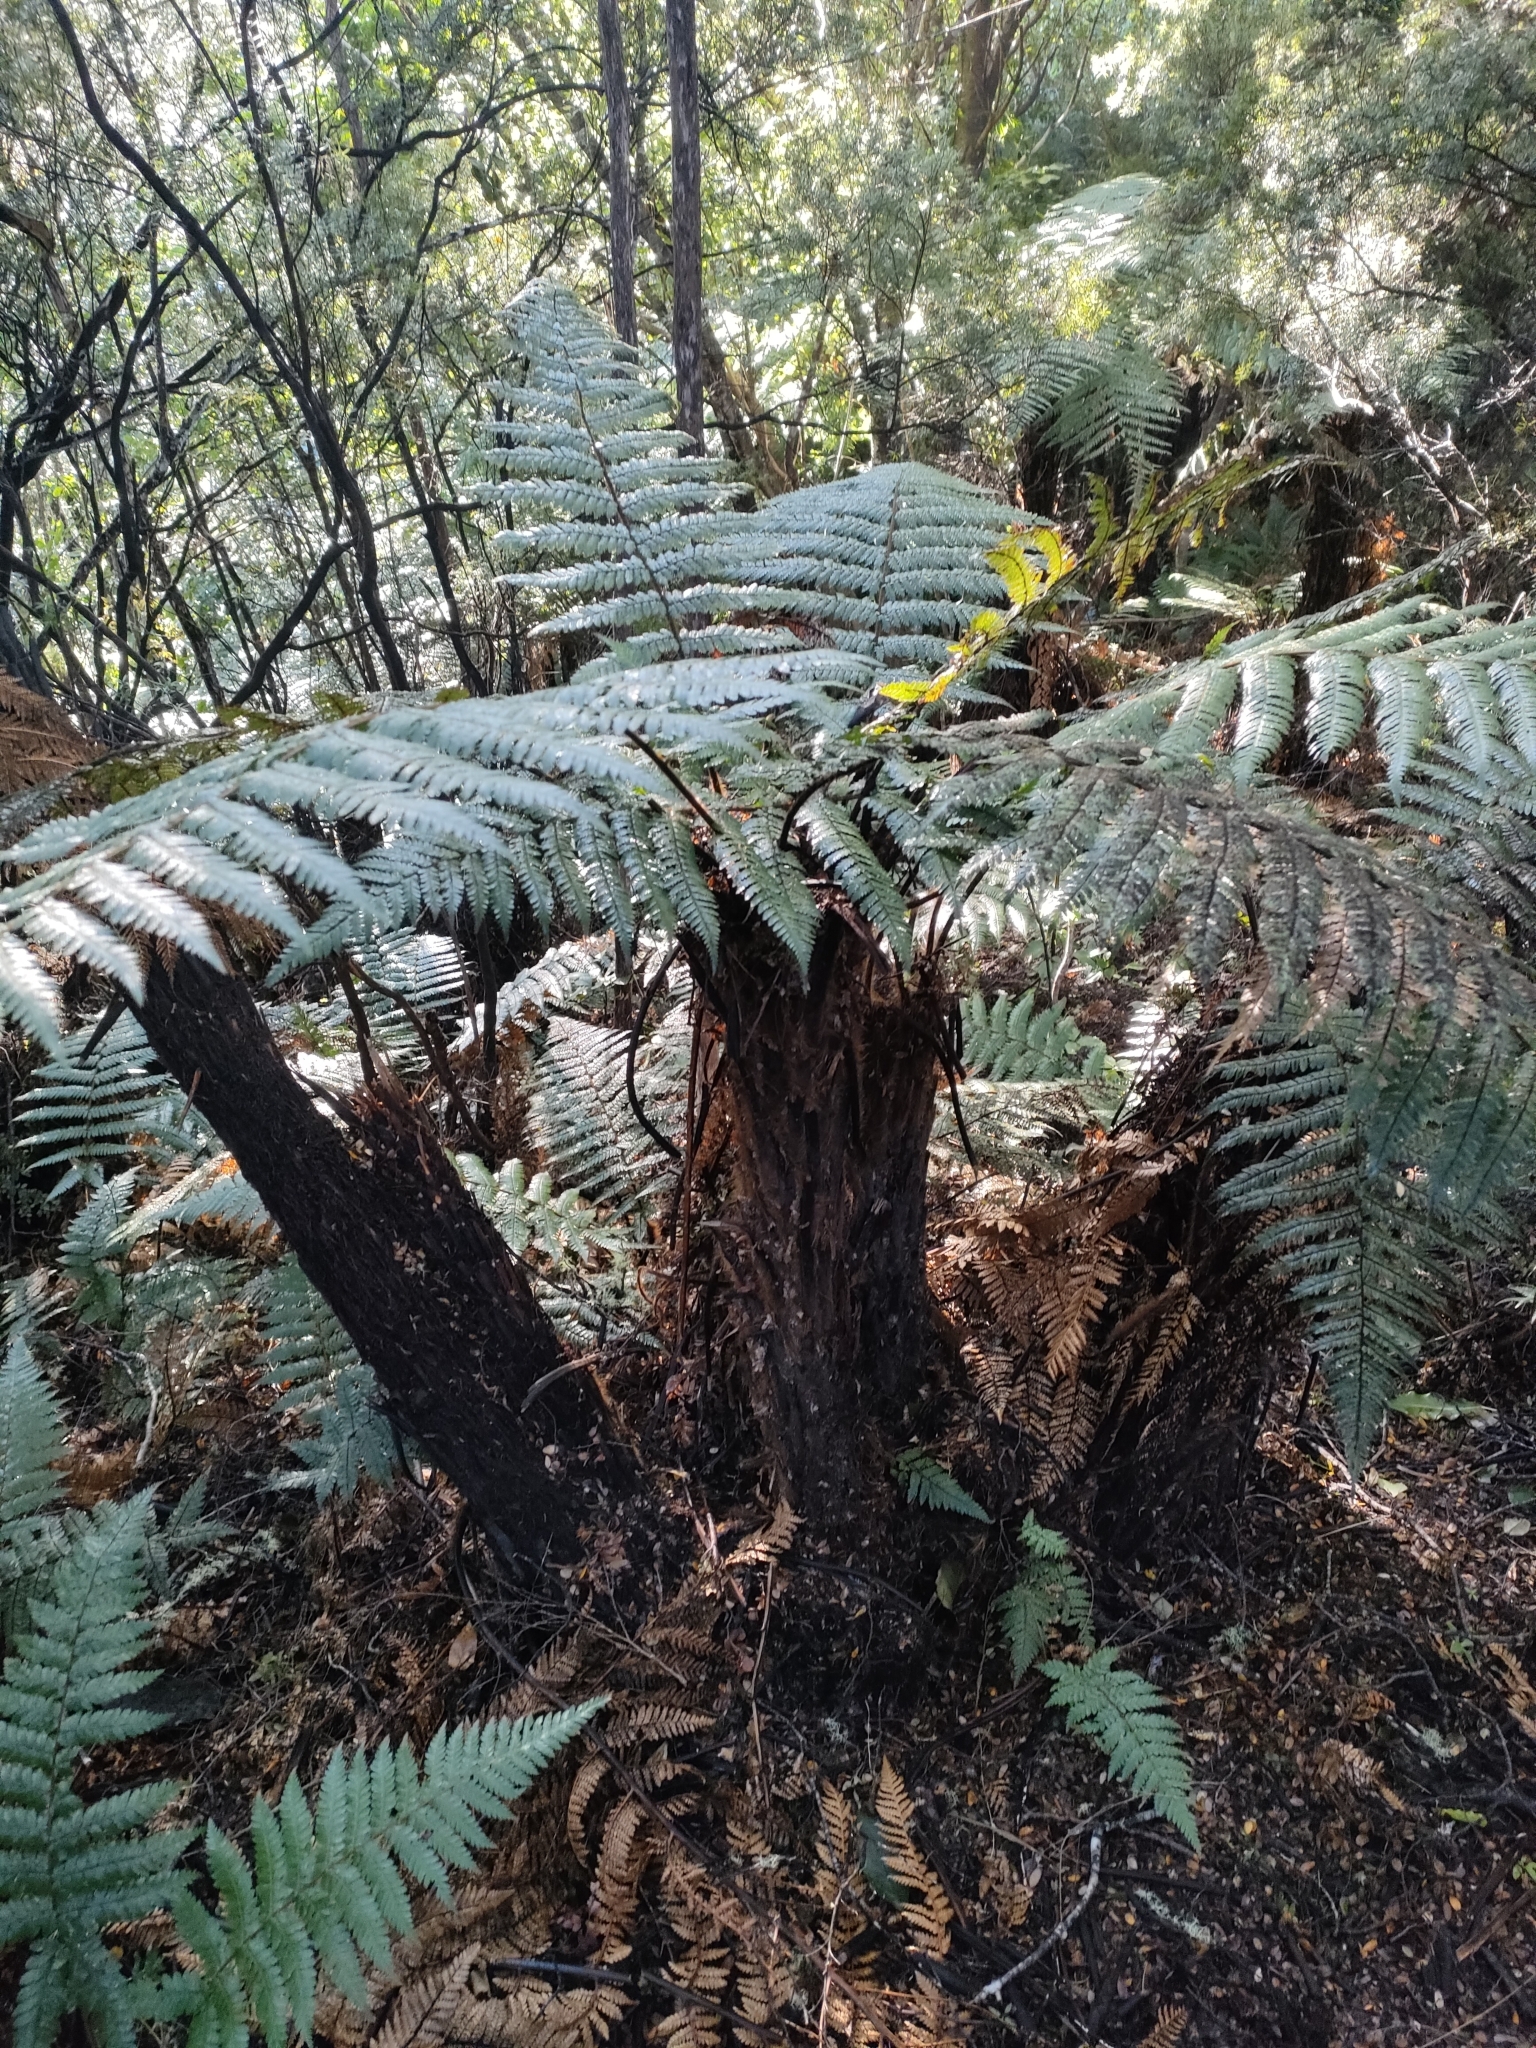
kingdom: Plantae
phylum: Tracheophyta
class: Polypodiopsida
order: Cyatheales
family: Dicksoniaceae
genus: Dicksonia
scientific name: Dicksonia fibrosa
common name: Golden tree fern
